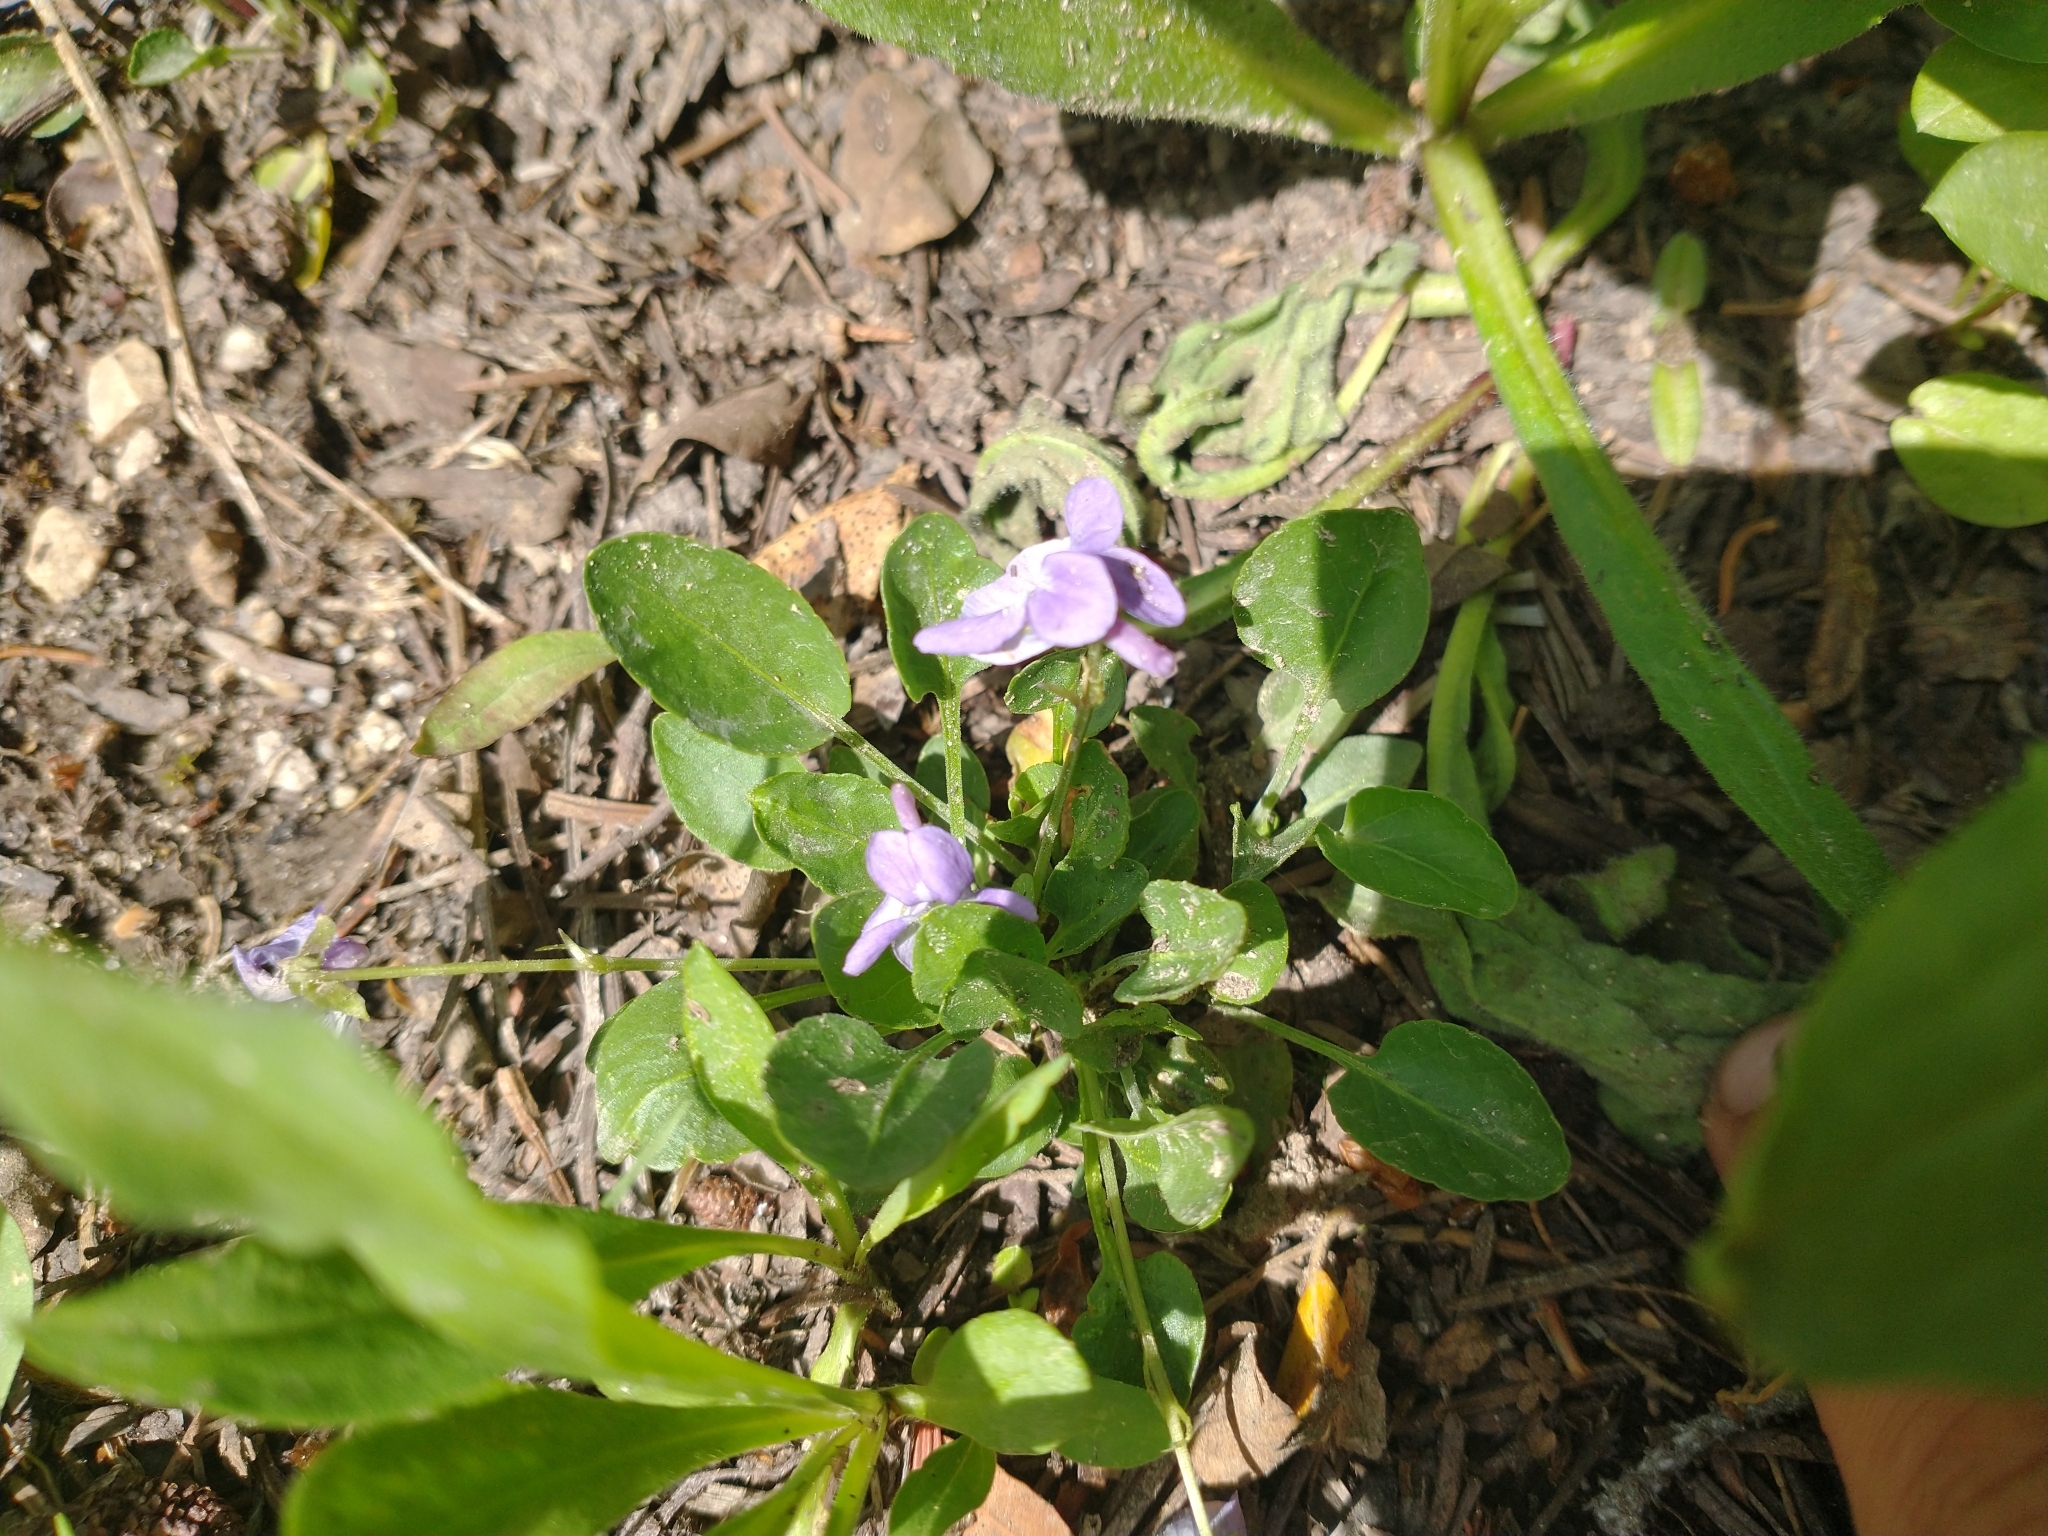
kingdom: Plantae
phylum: Tracheophyta
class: Magnoliopsida
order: Malpighiales
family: Violaceae
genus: Viola
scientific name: Viola adunca
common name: Sand violet
